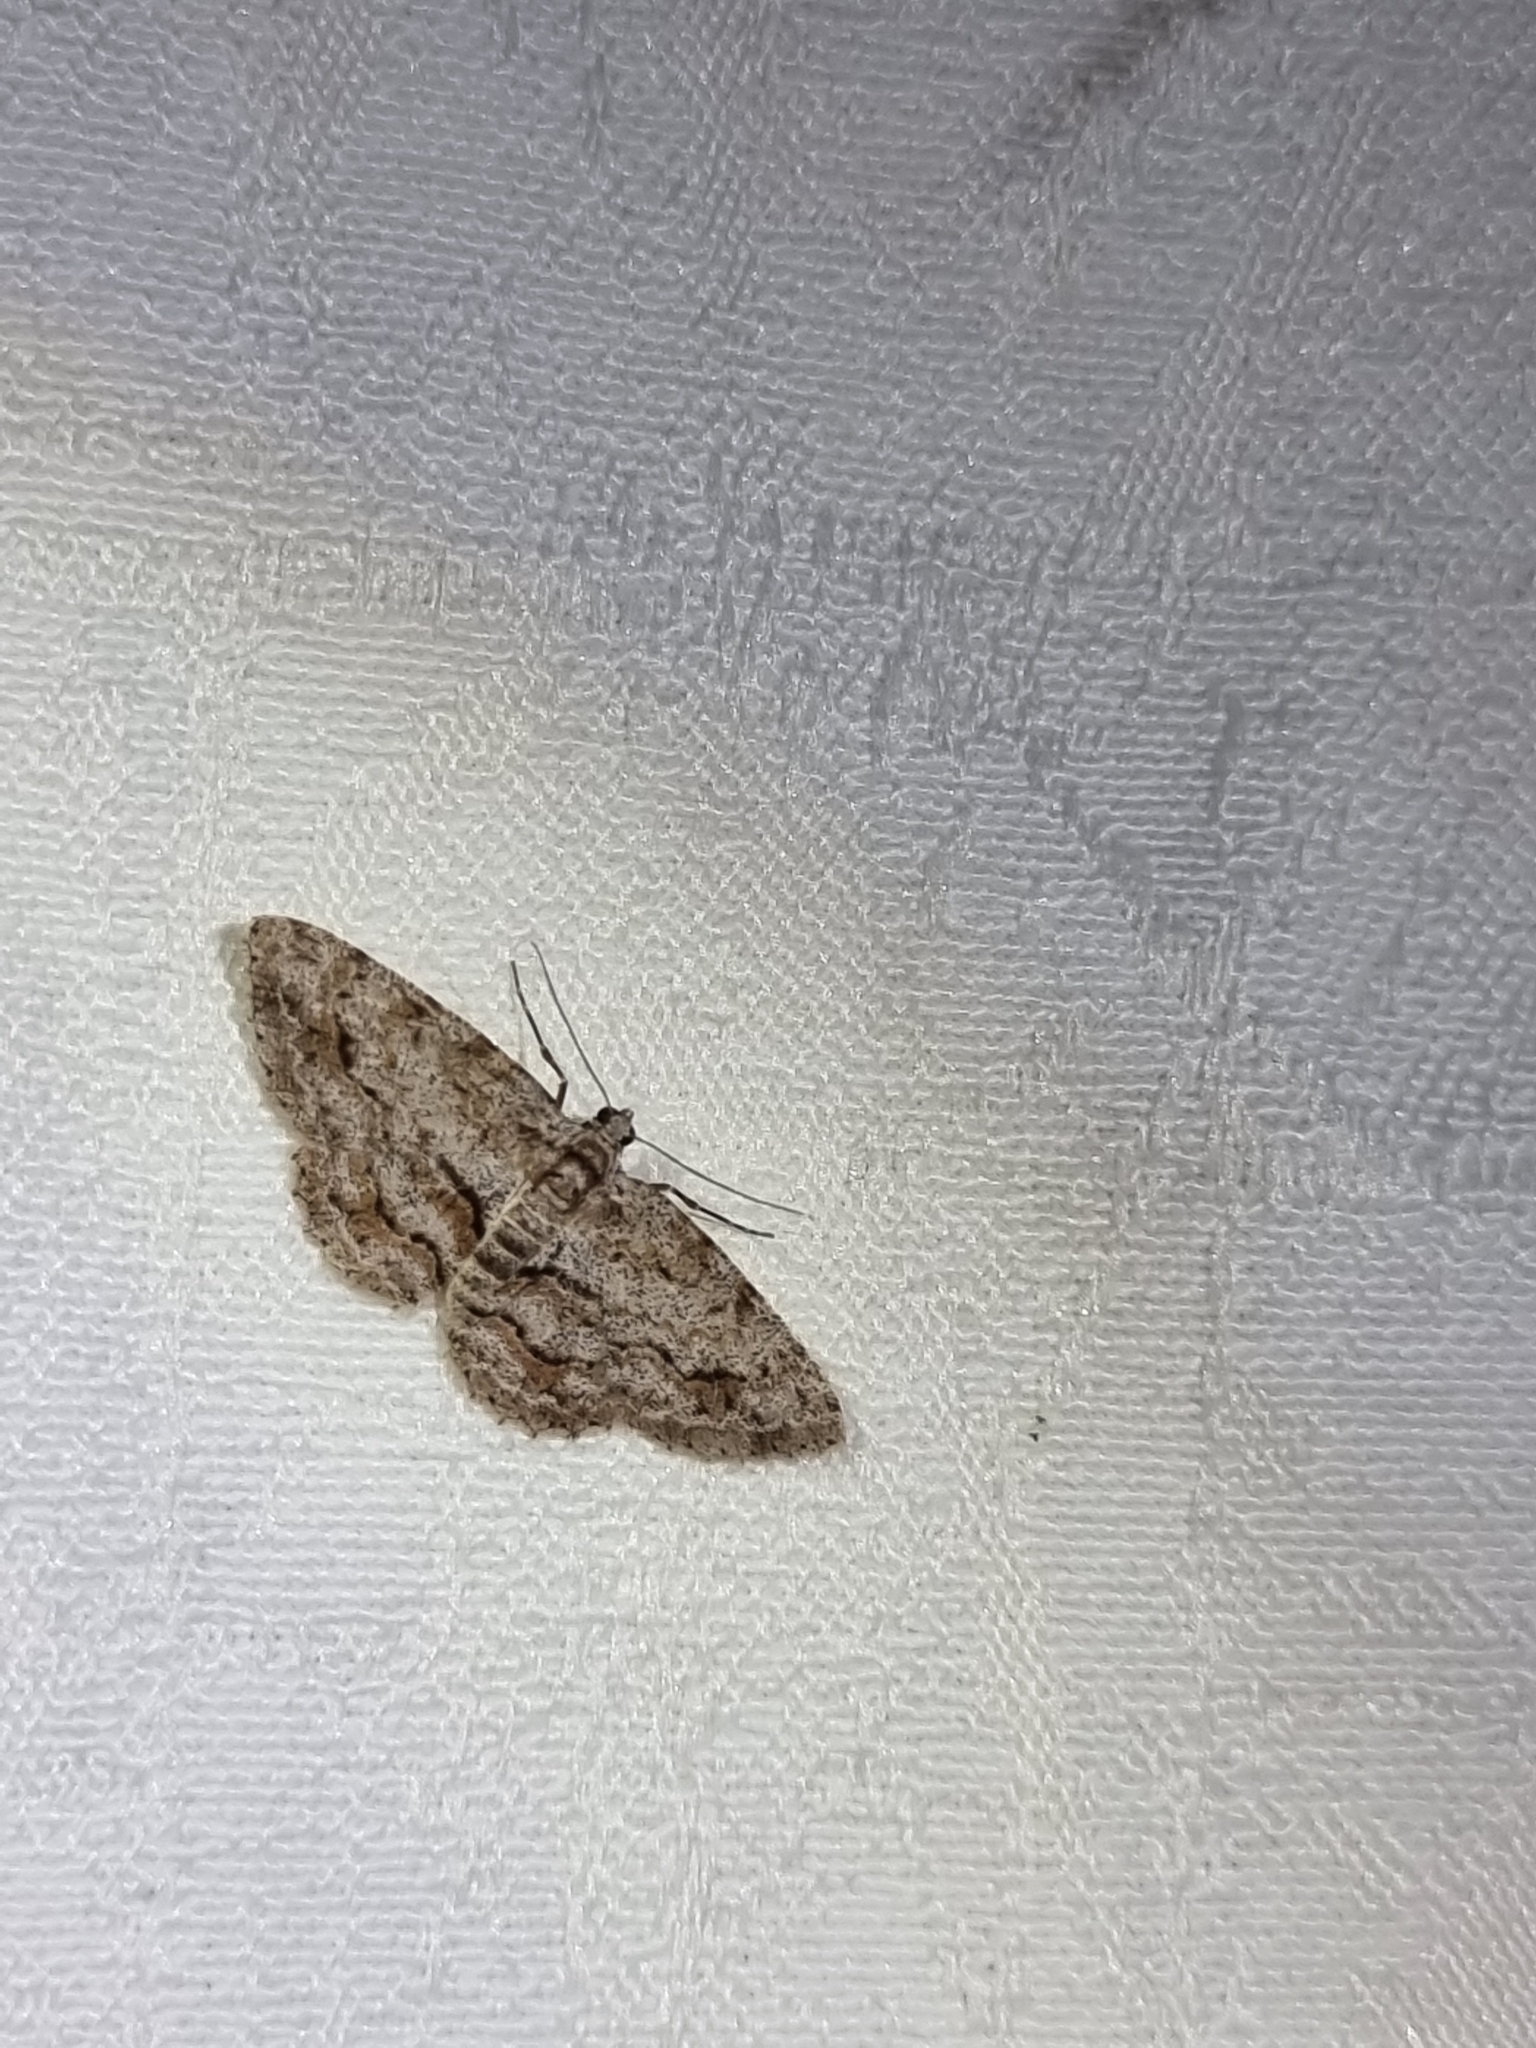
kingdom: Animalia
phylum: Arthropoda
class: Insecta
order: Lepidoptera
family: Geometridae
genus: Didymoctenia
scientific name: Didymoctenia exsuperata
